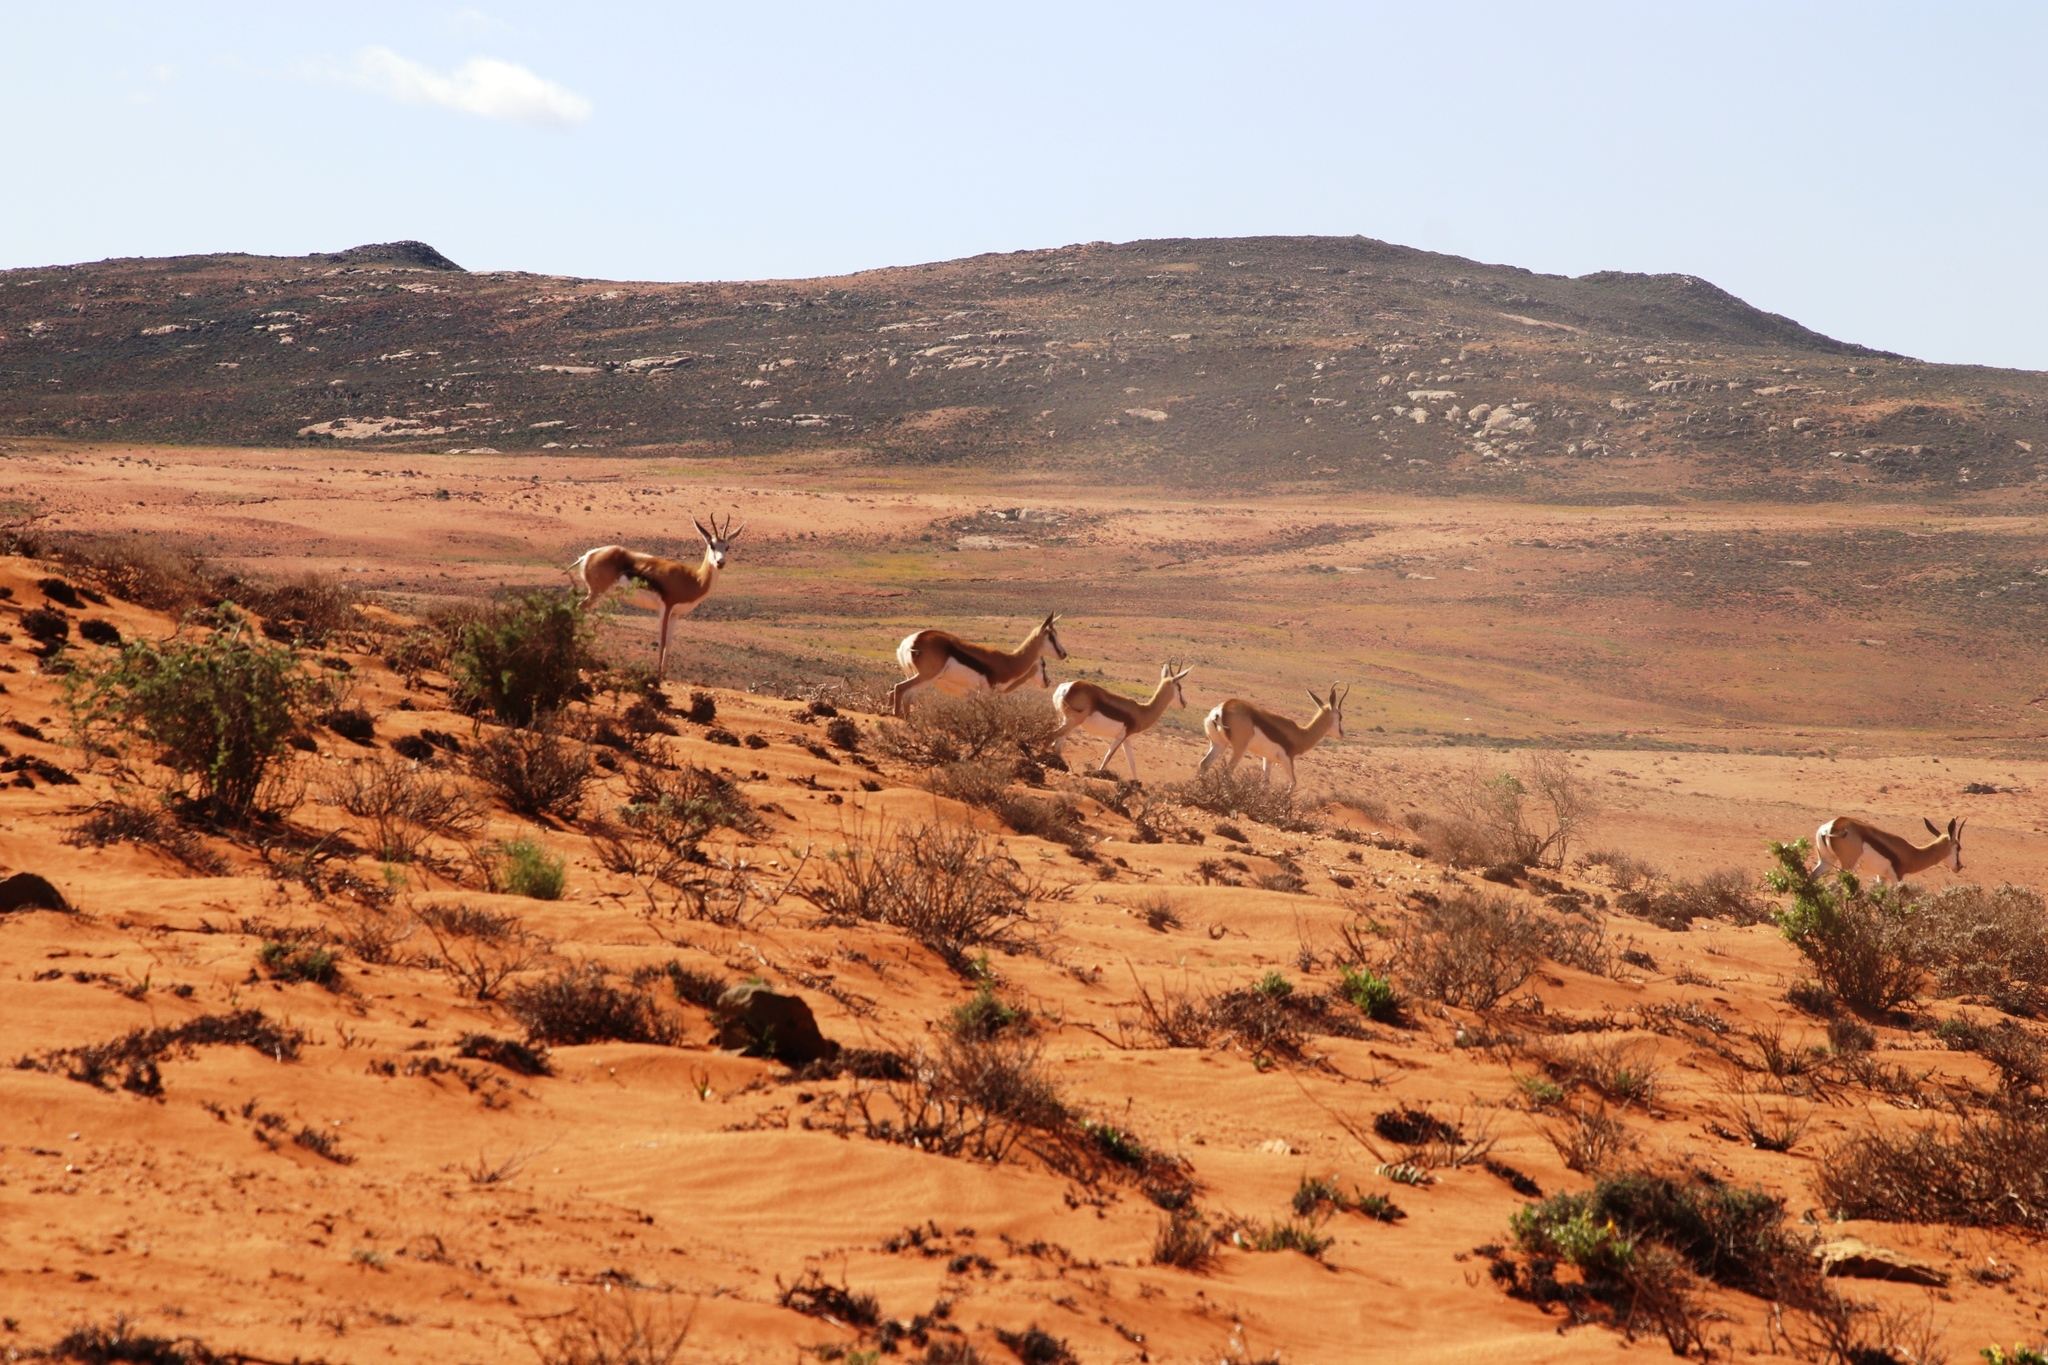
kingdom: Animalia
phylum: Chordata
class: Mammalia
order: Artiodactyla
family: Bovidae
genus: Antidorcas
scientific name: Antidorcas marsupialis
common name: Springbok
